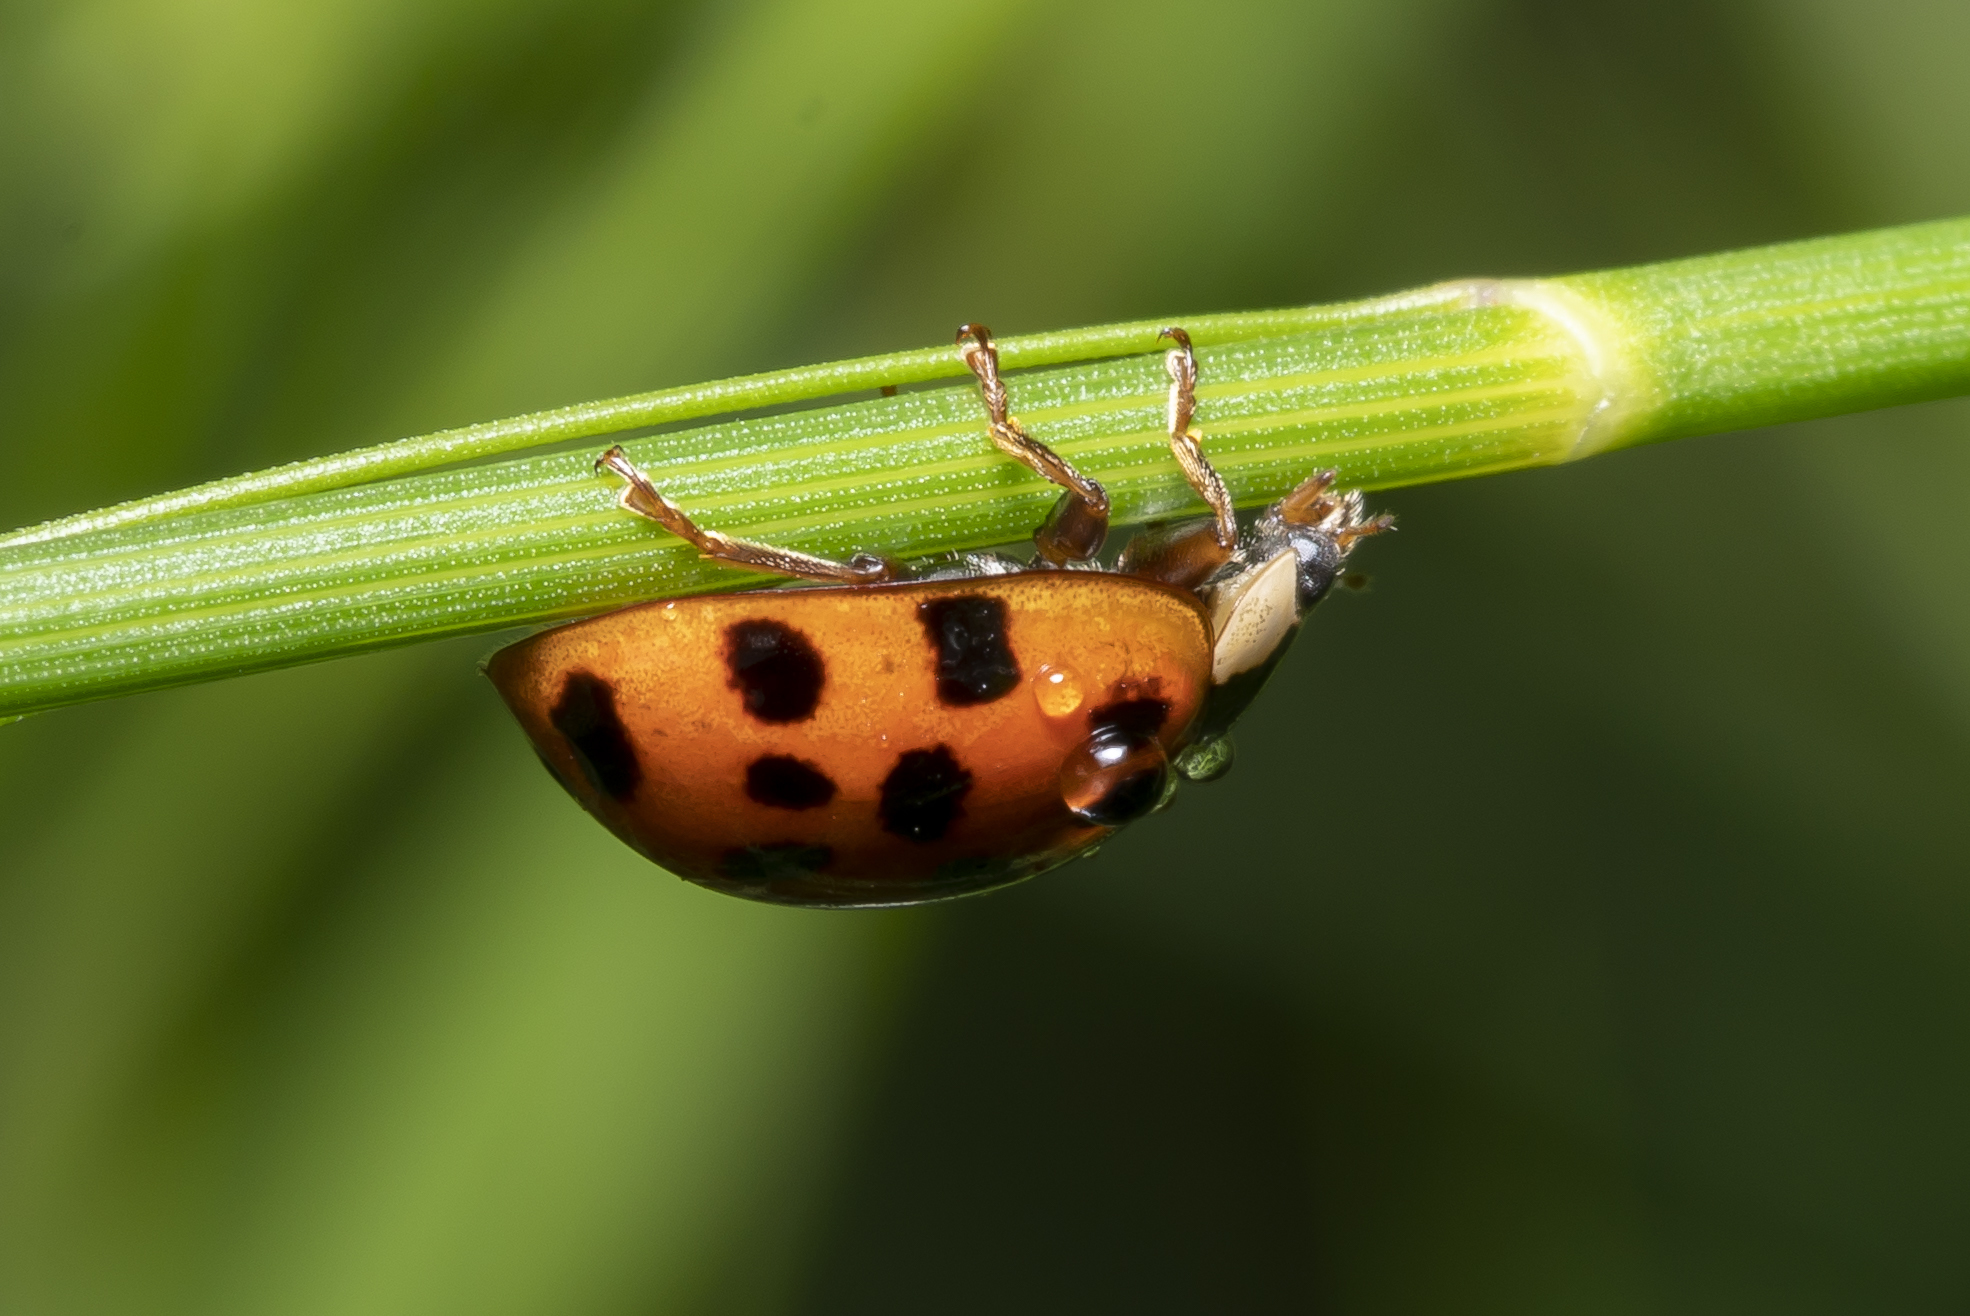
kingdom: Animalia
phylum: Arthropoda
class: Insecta
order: Coleoptera
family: Coccinellidae
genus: Harmonia
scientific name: Harmonia axyridis
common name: Harlequin ladybird
